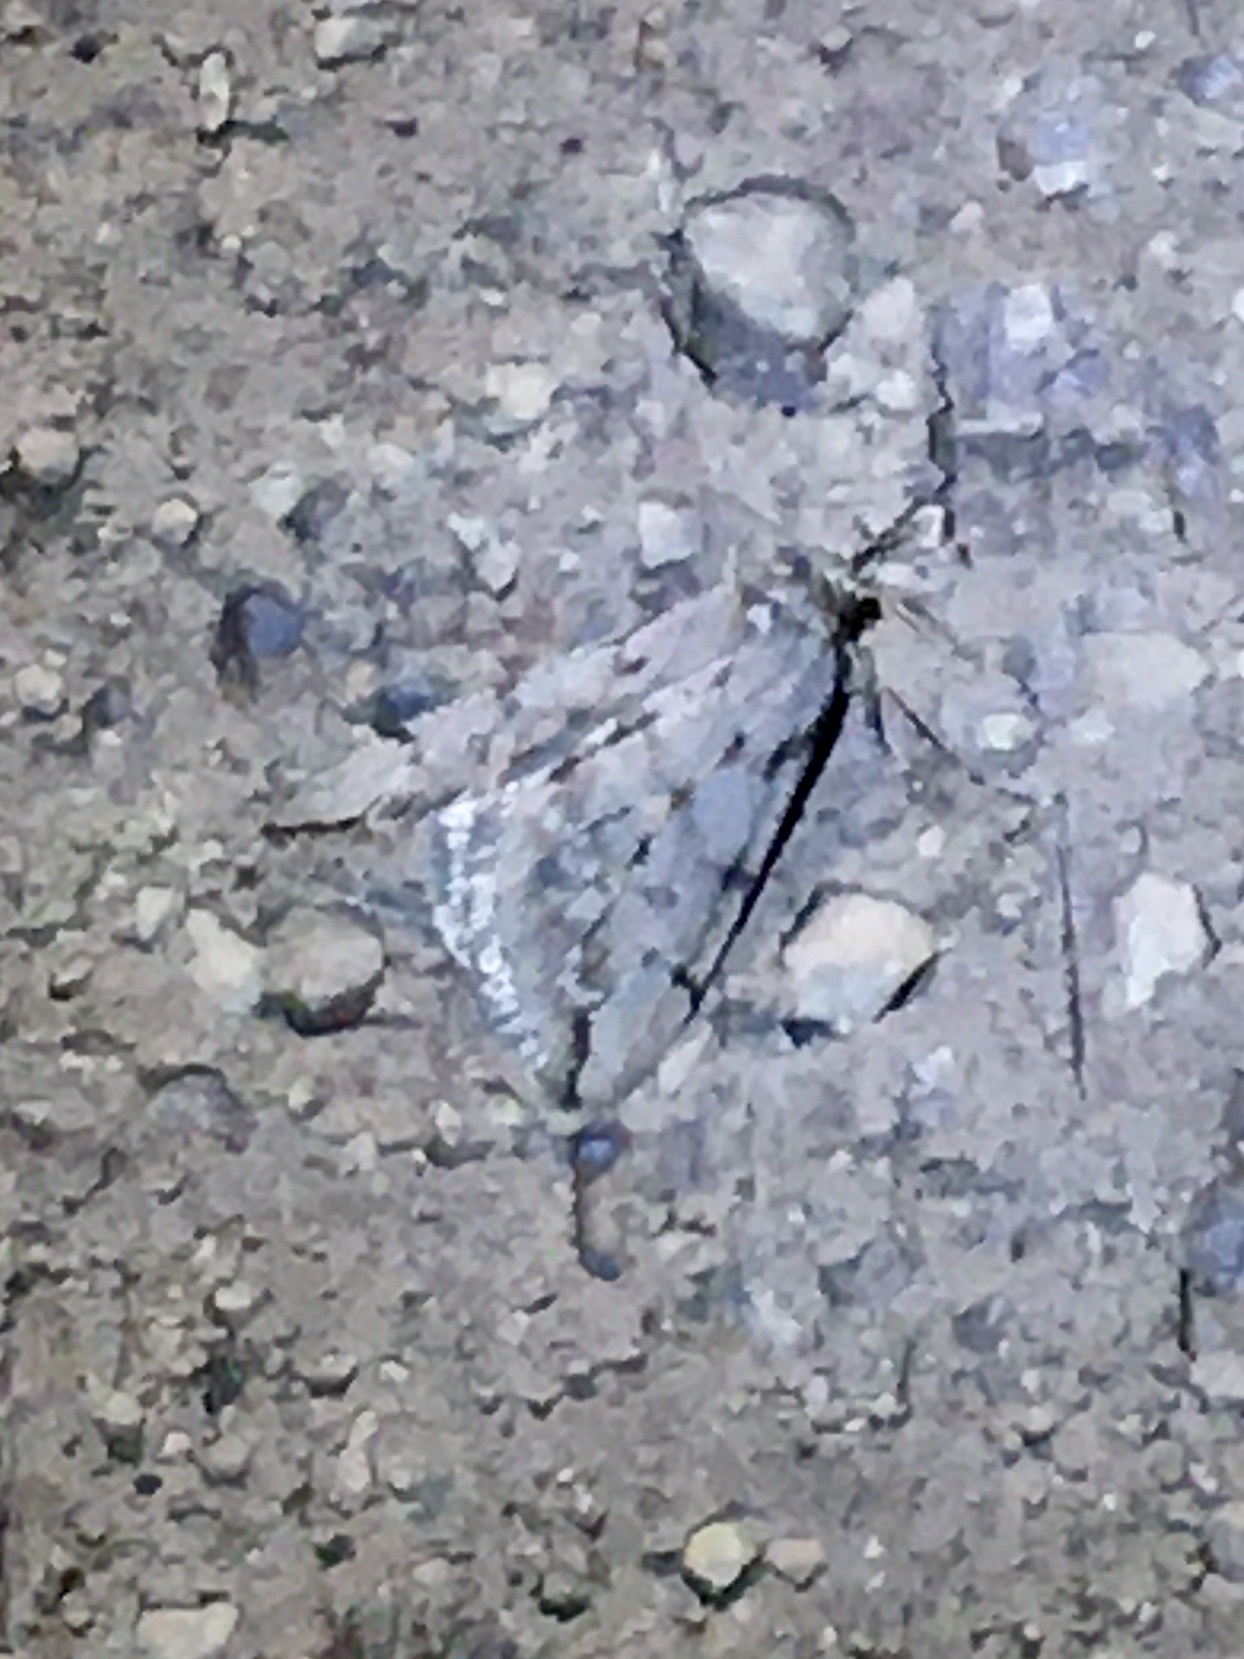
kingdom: Animalia
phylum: Arthropoda
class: Insecta
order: Lepidoptera
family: Geometridae
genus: Paleacrita
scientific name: Paleacrita vernata
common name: Spring cankerworm
